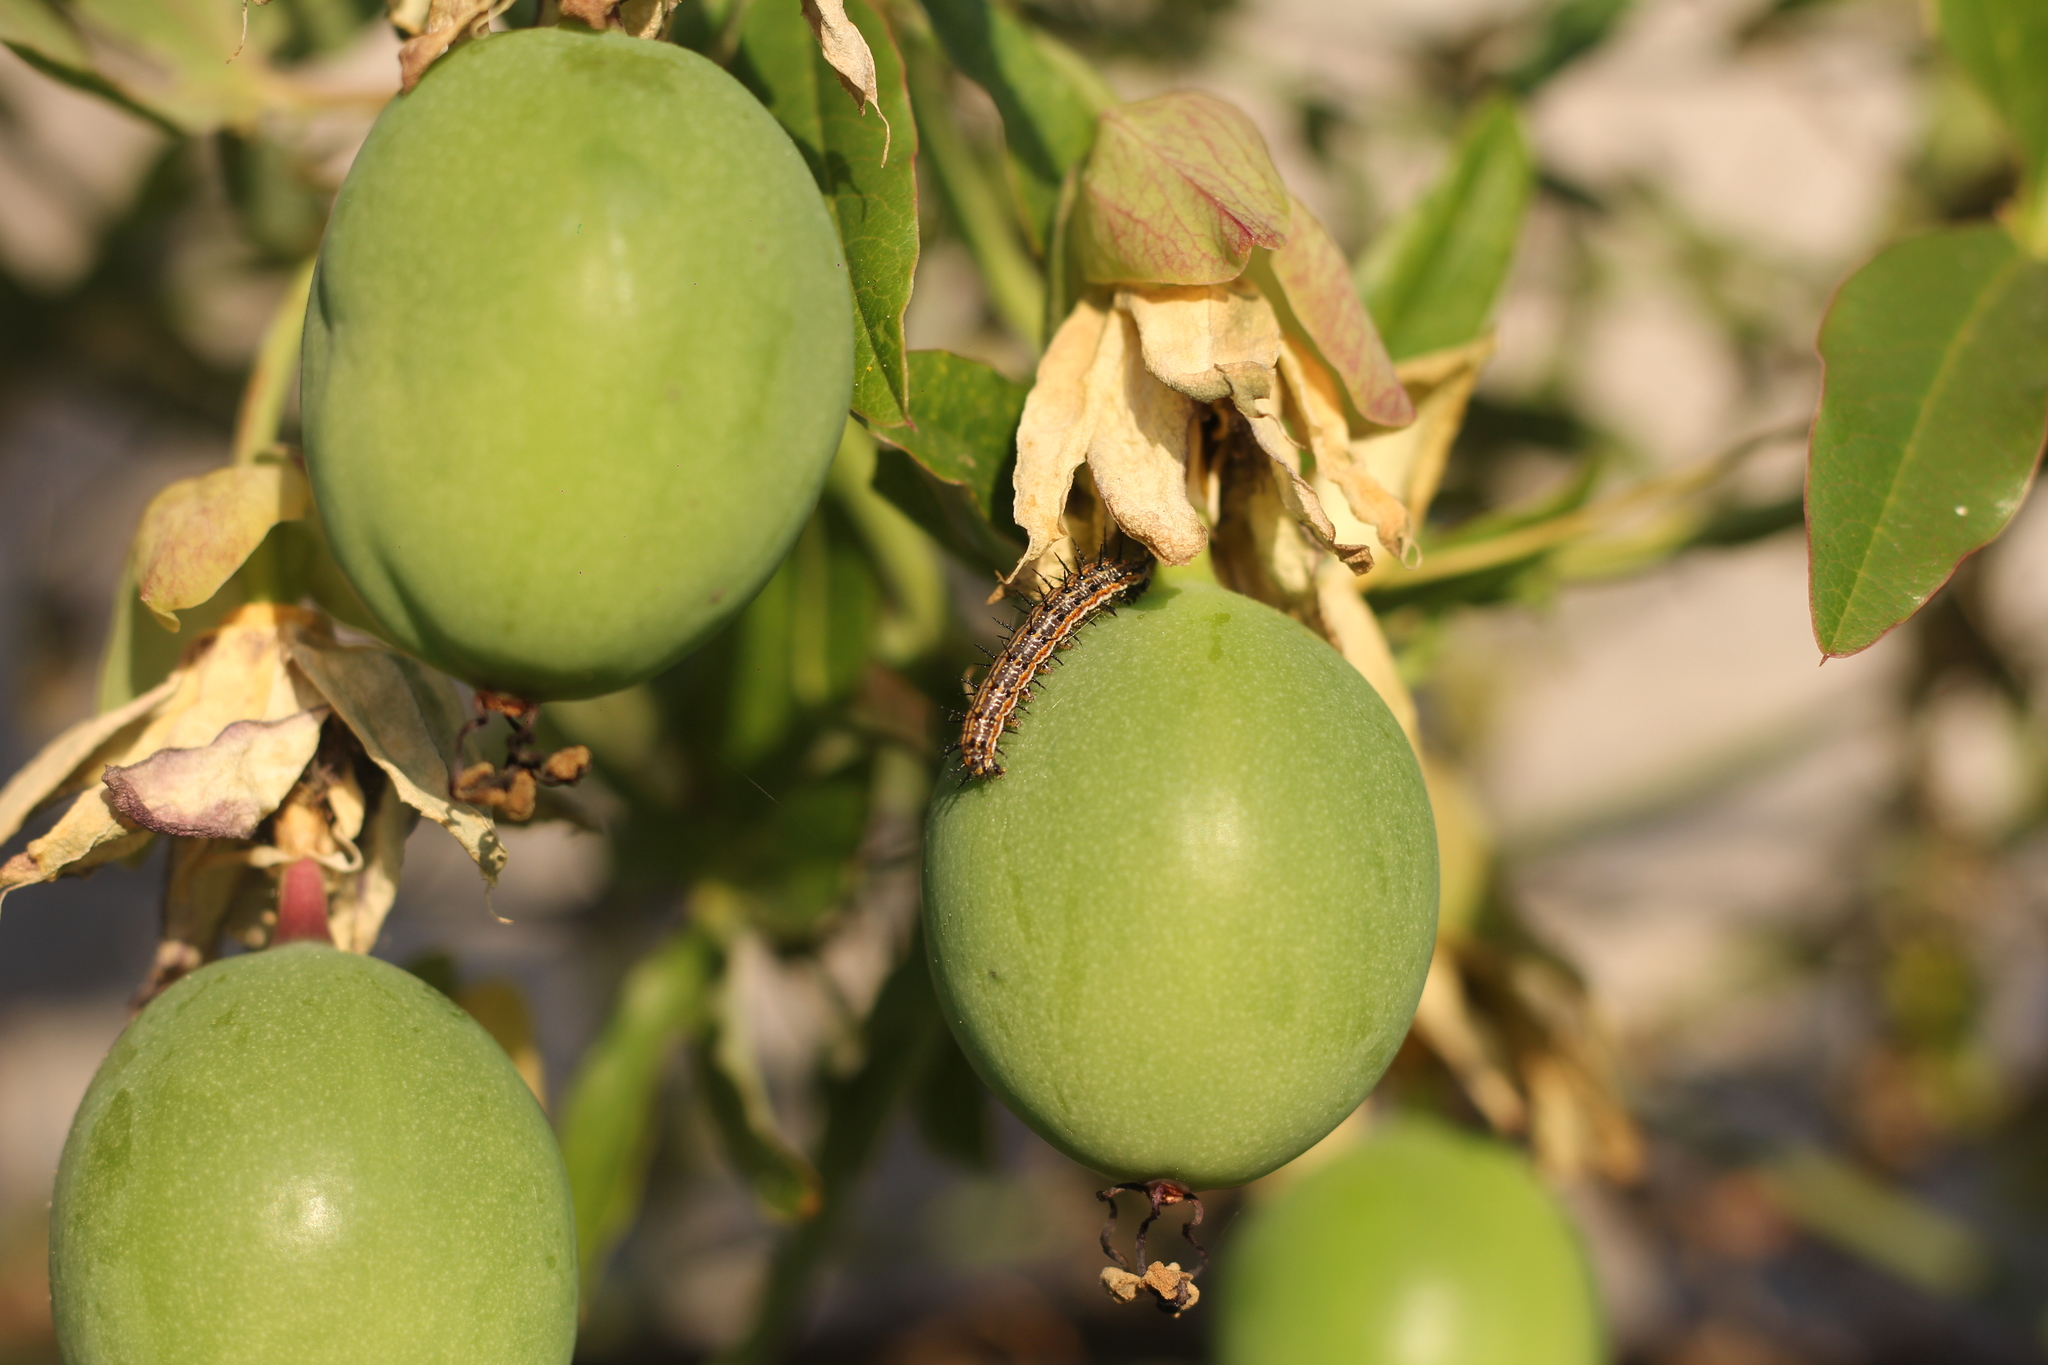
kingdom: Animalia
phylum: Arthropoda
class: Insecta
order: Lepidoptera
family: Nymphalidae
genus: Dione
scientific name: Dione vanillae
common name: Gulf fritillary
